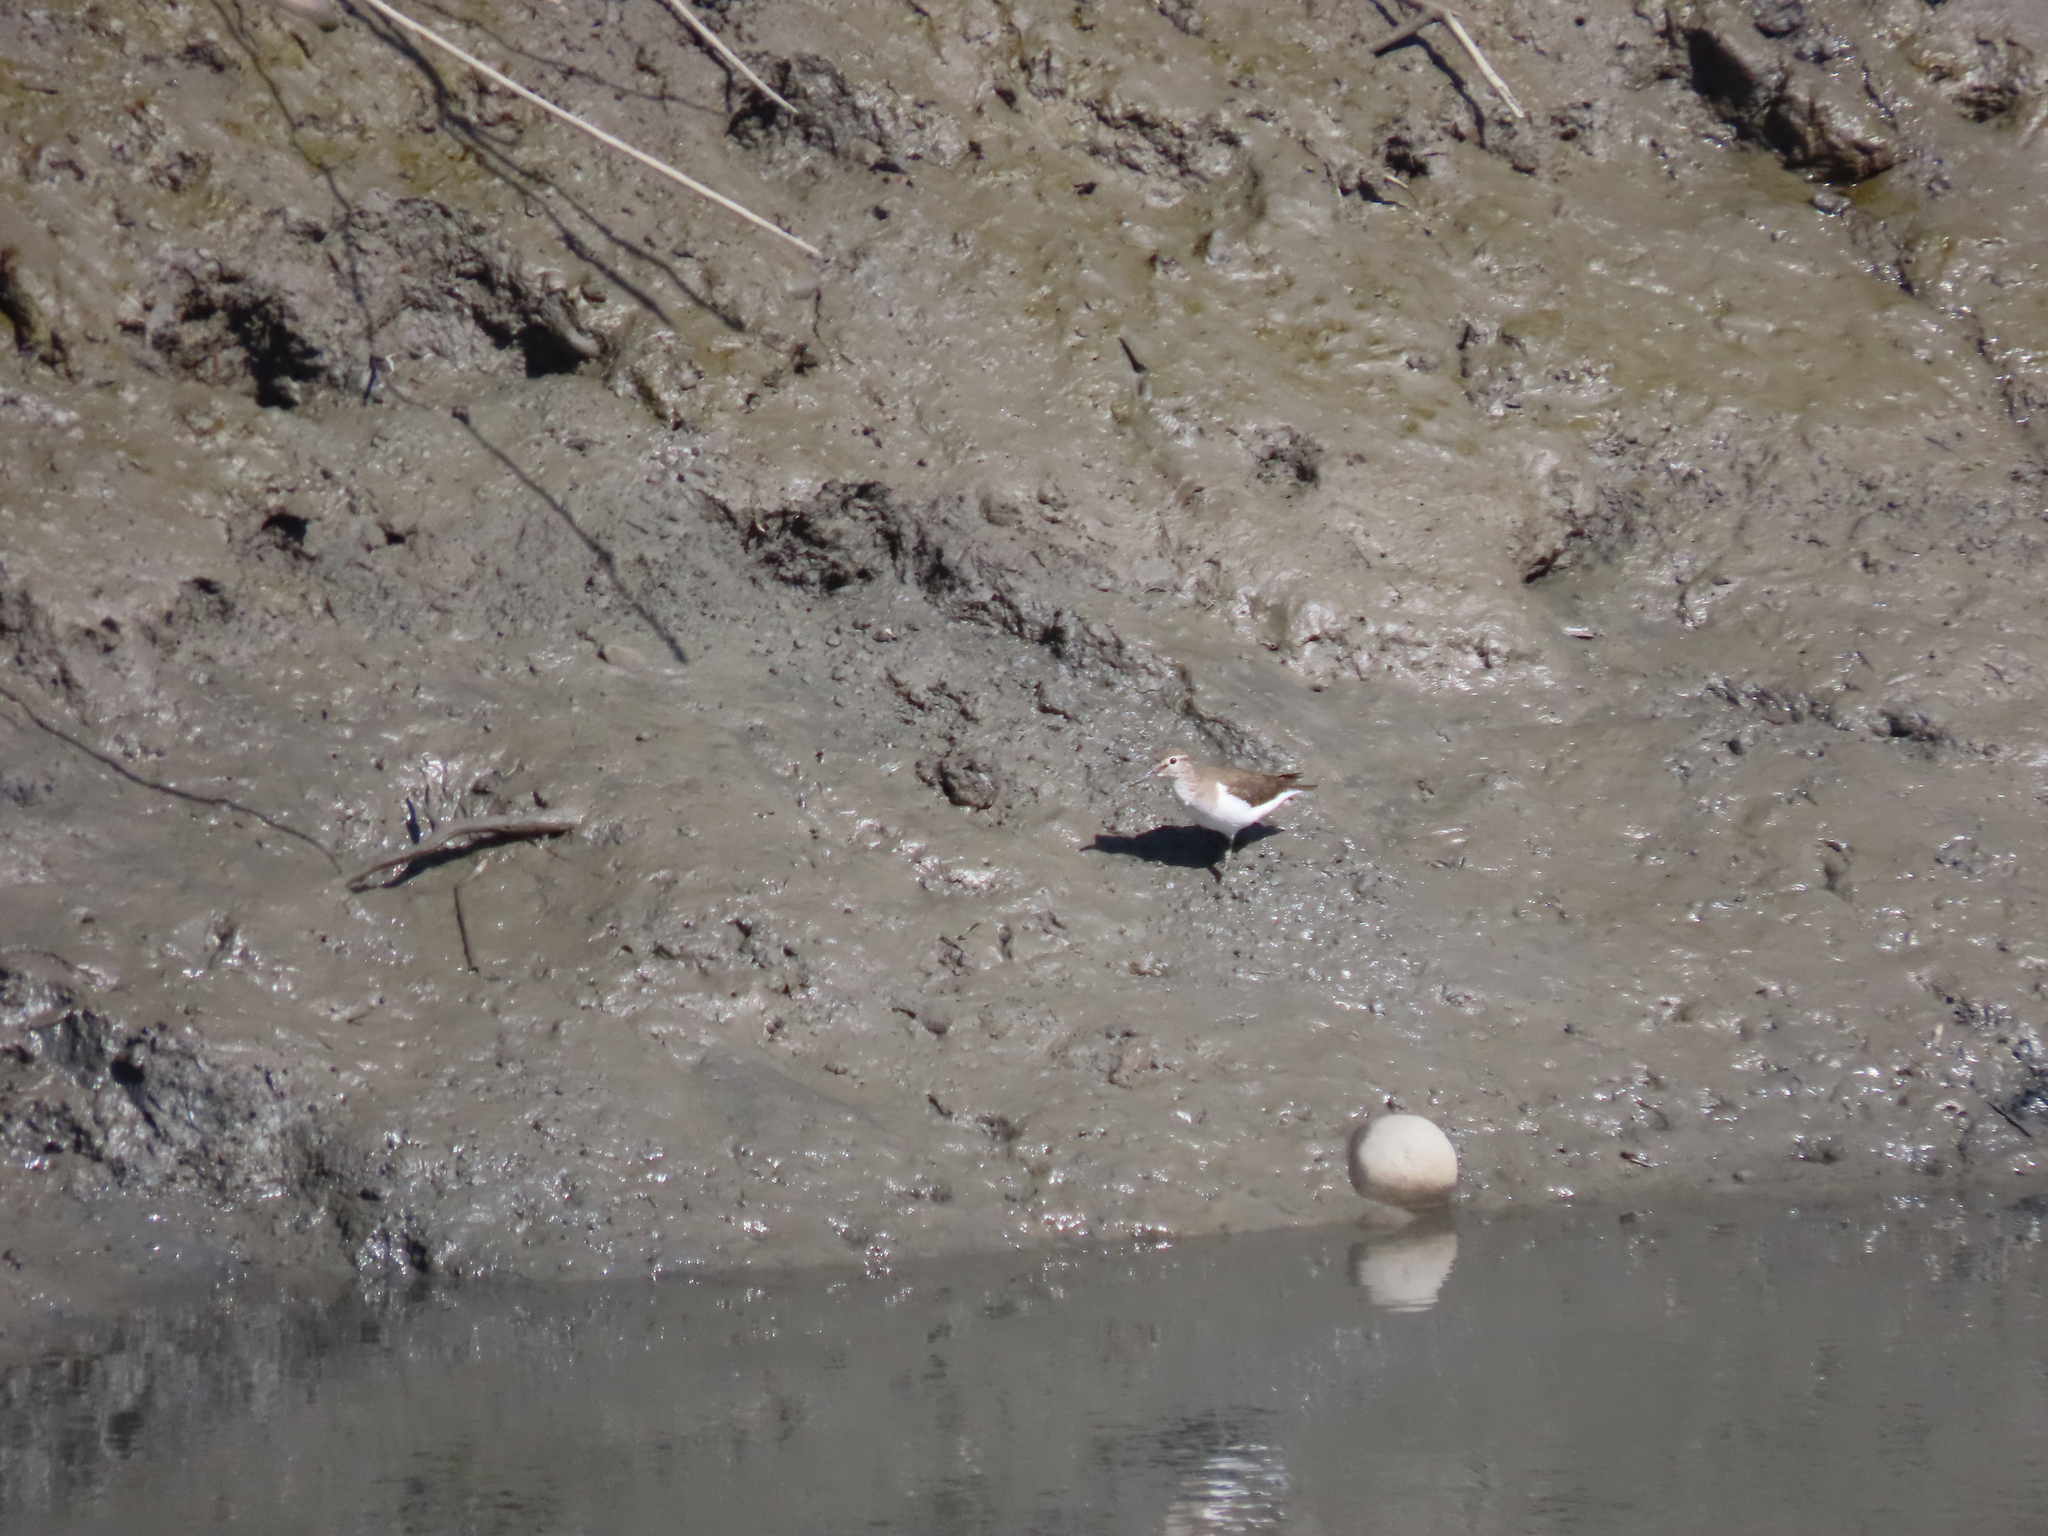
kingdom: Animalia
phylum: Chordata
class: Aves
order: Charadriiformes
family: Scolopacidae
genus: Actitis
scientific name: Actitis hypoleucos
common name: Common sandpiper
